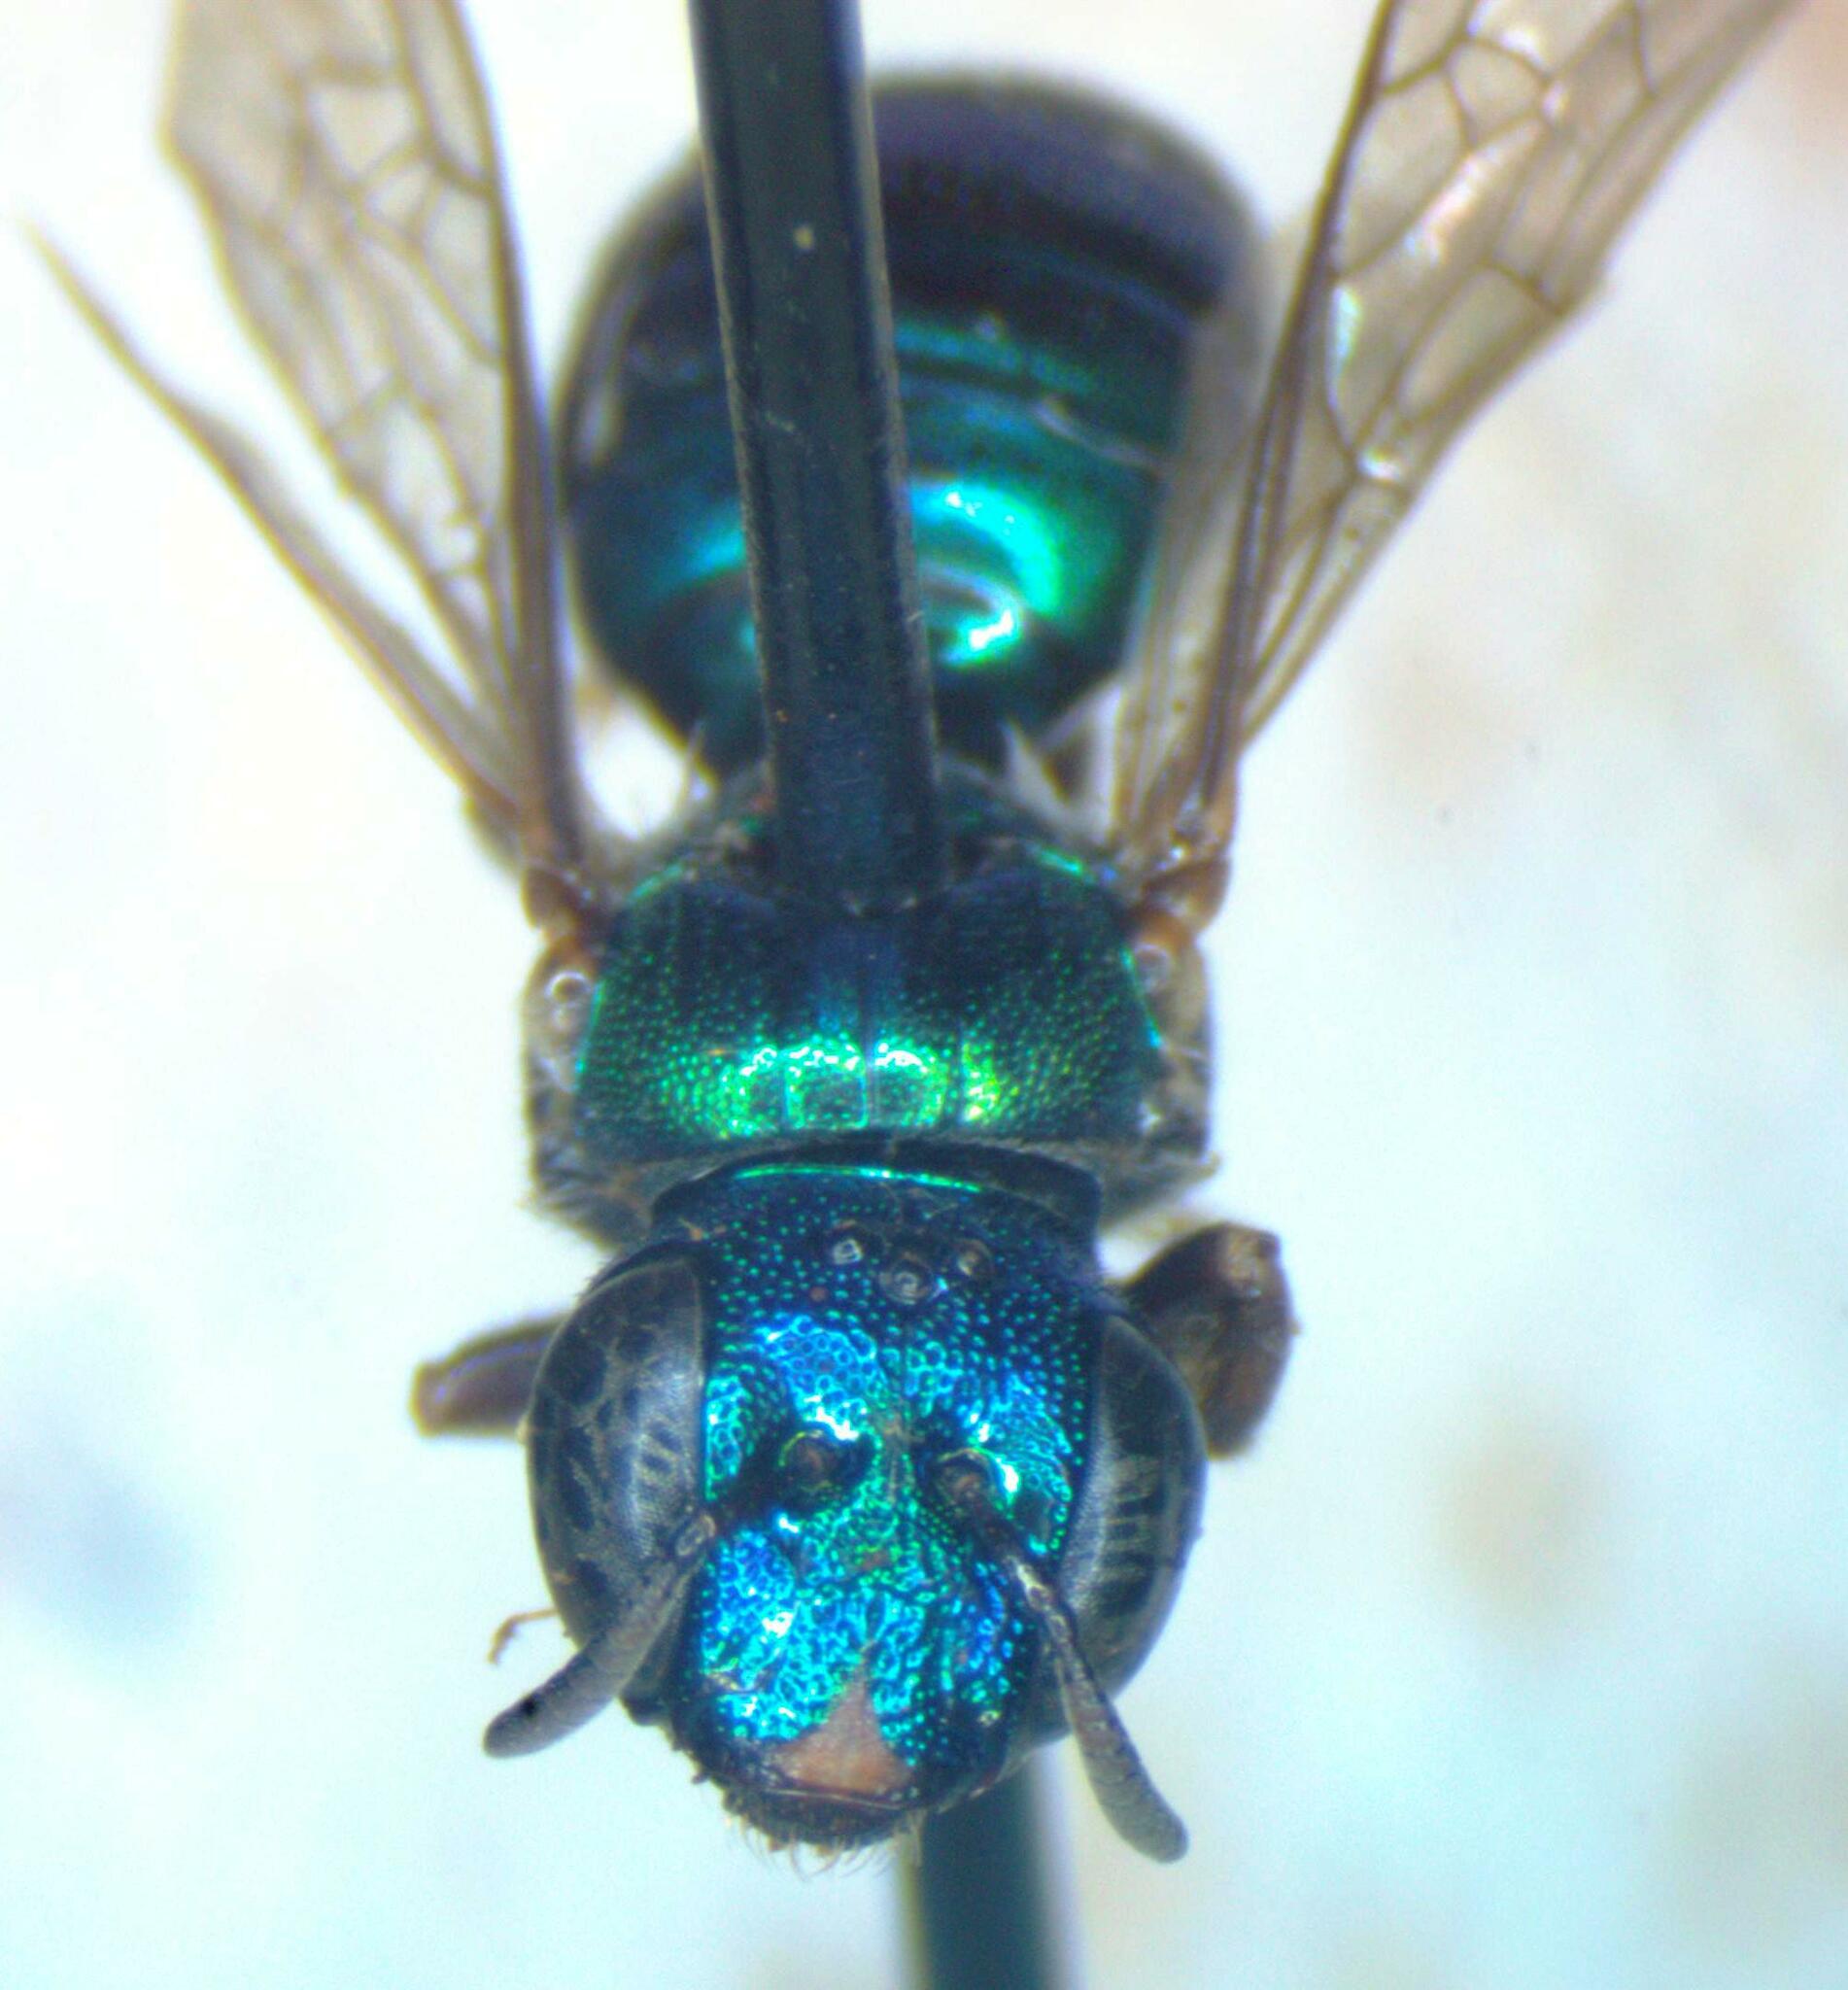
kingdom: Animalia
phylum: Arthropoda
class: Insecta
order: Hymenoptera
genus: Calloceratina
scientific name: Calloceratina
